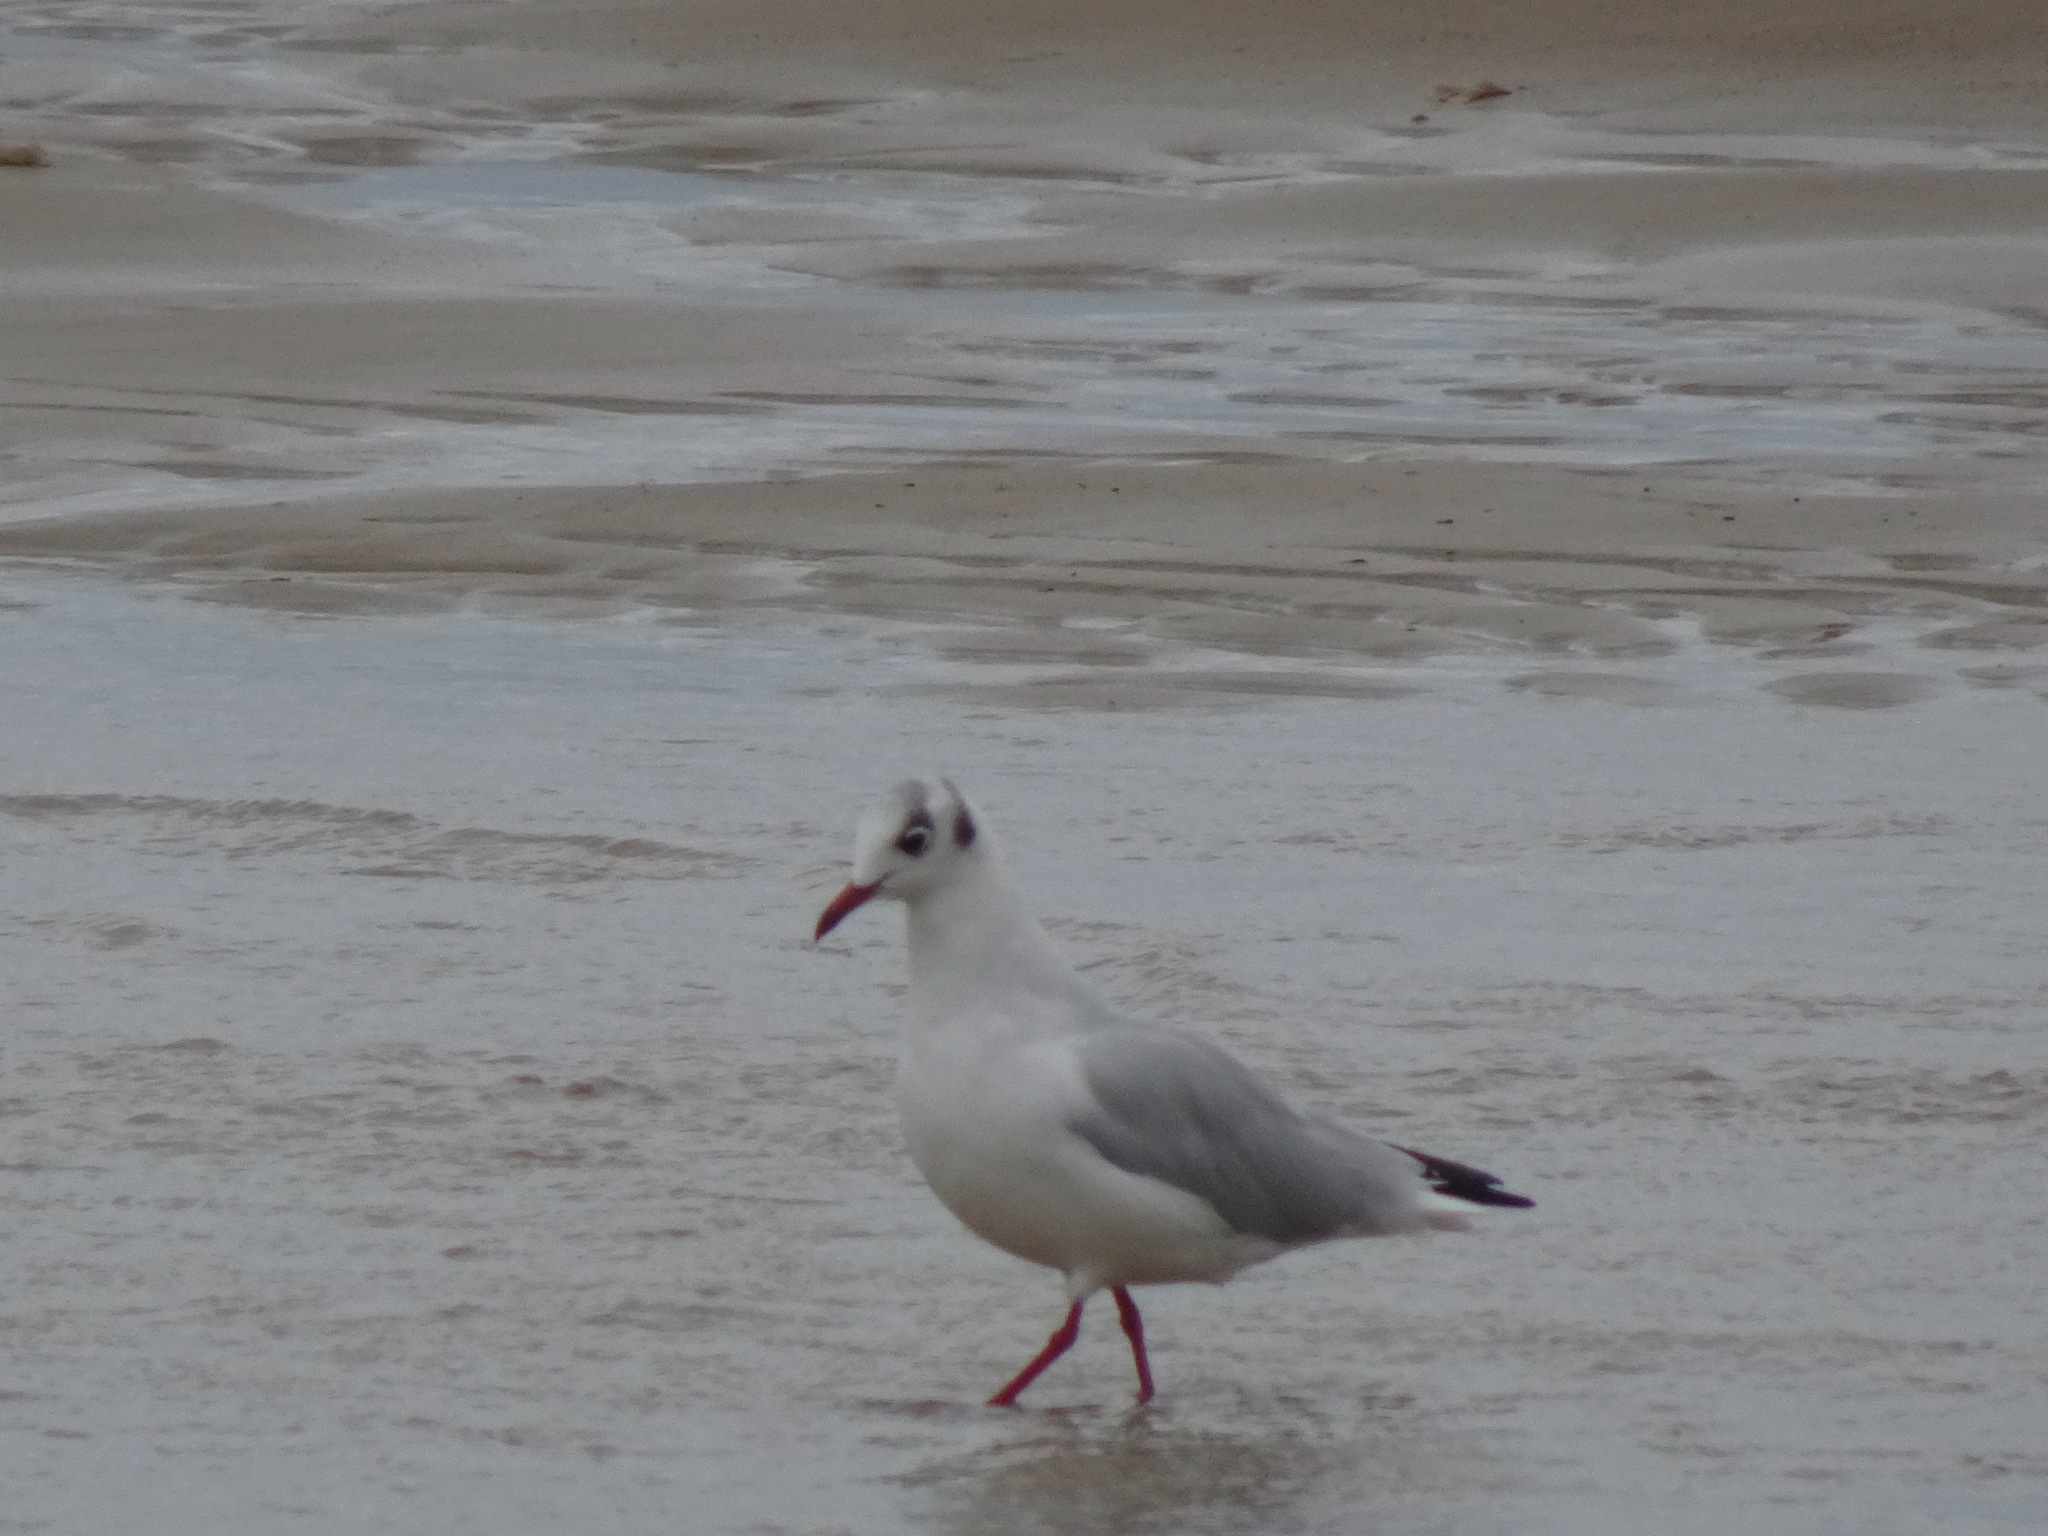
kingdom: Animalia
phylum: Chordata
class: Aves
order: Charadriiformes
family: Laridae
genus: Chroicocephalus
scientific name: Chroicocephalus ridibundus
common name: Black-headed gull
